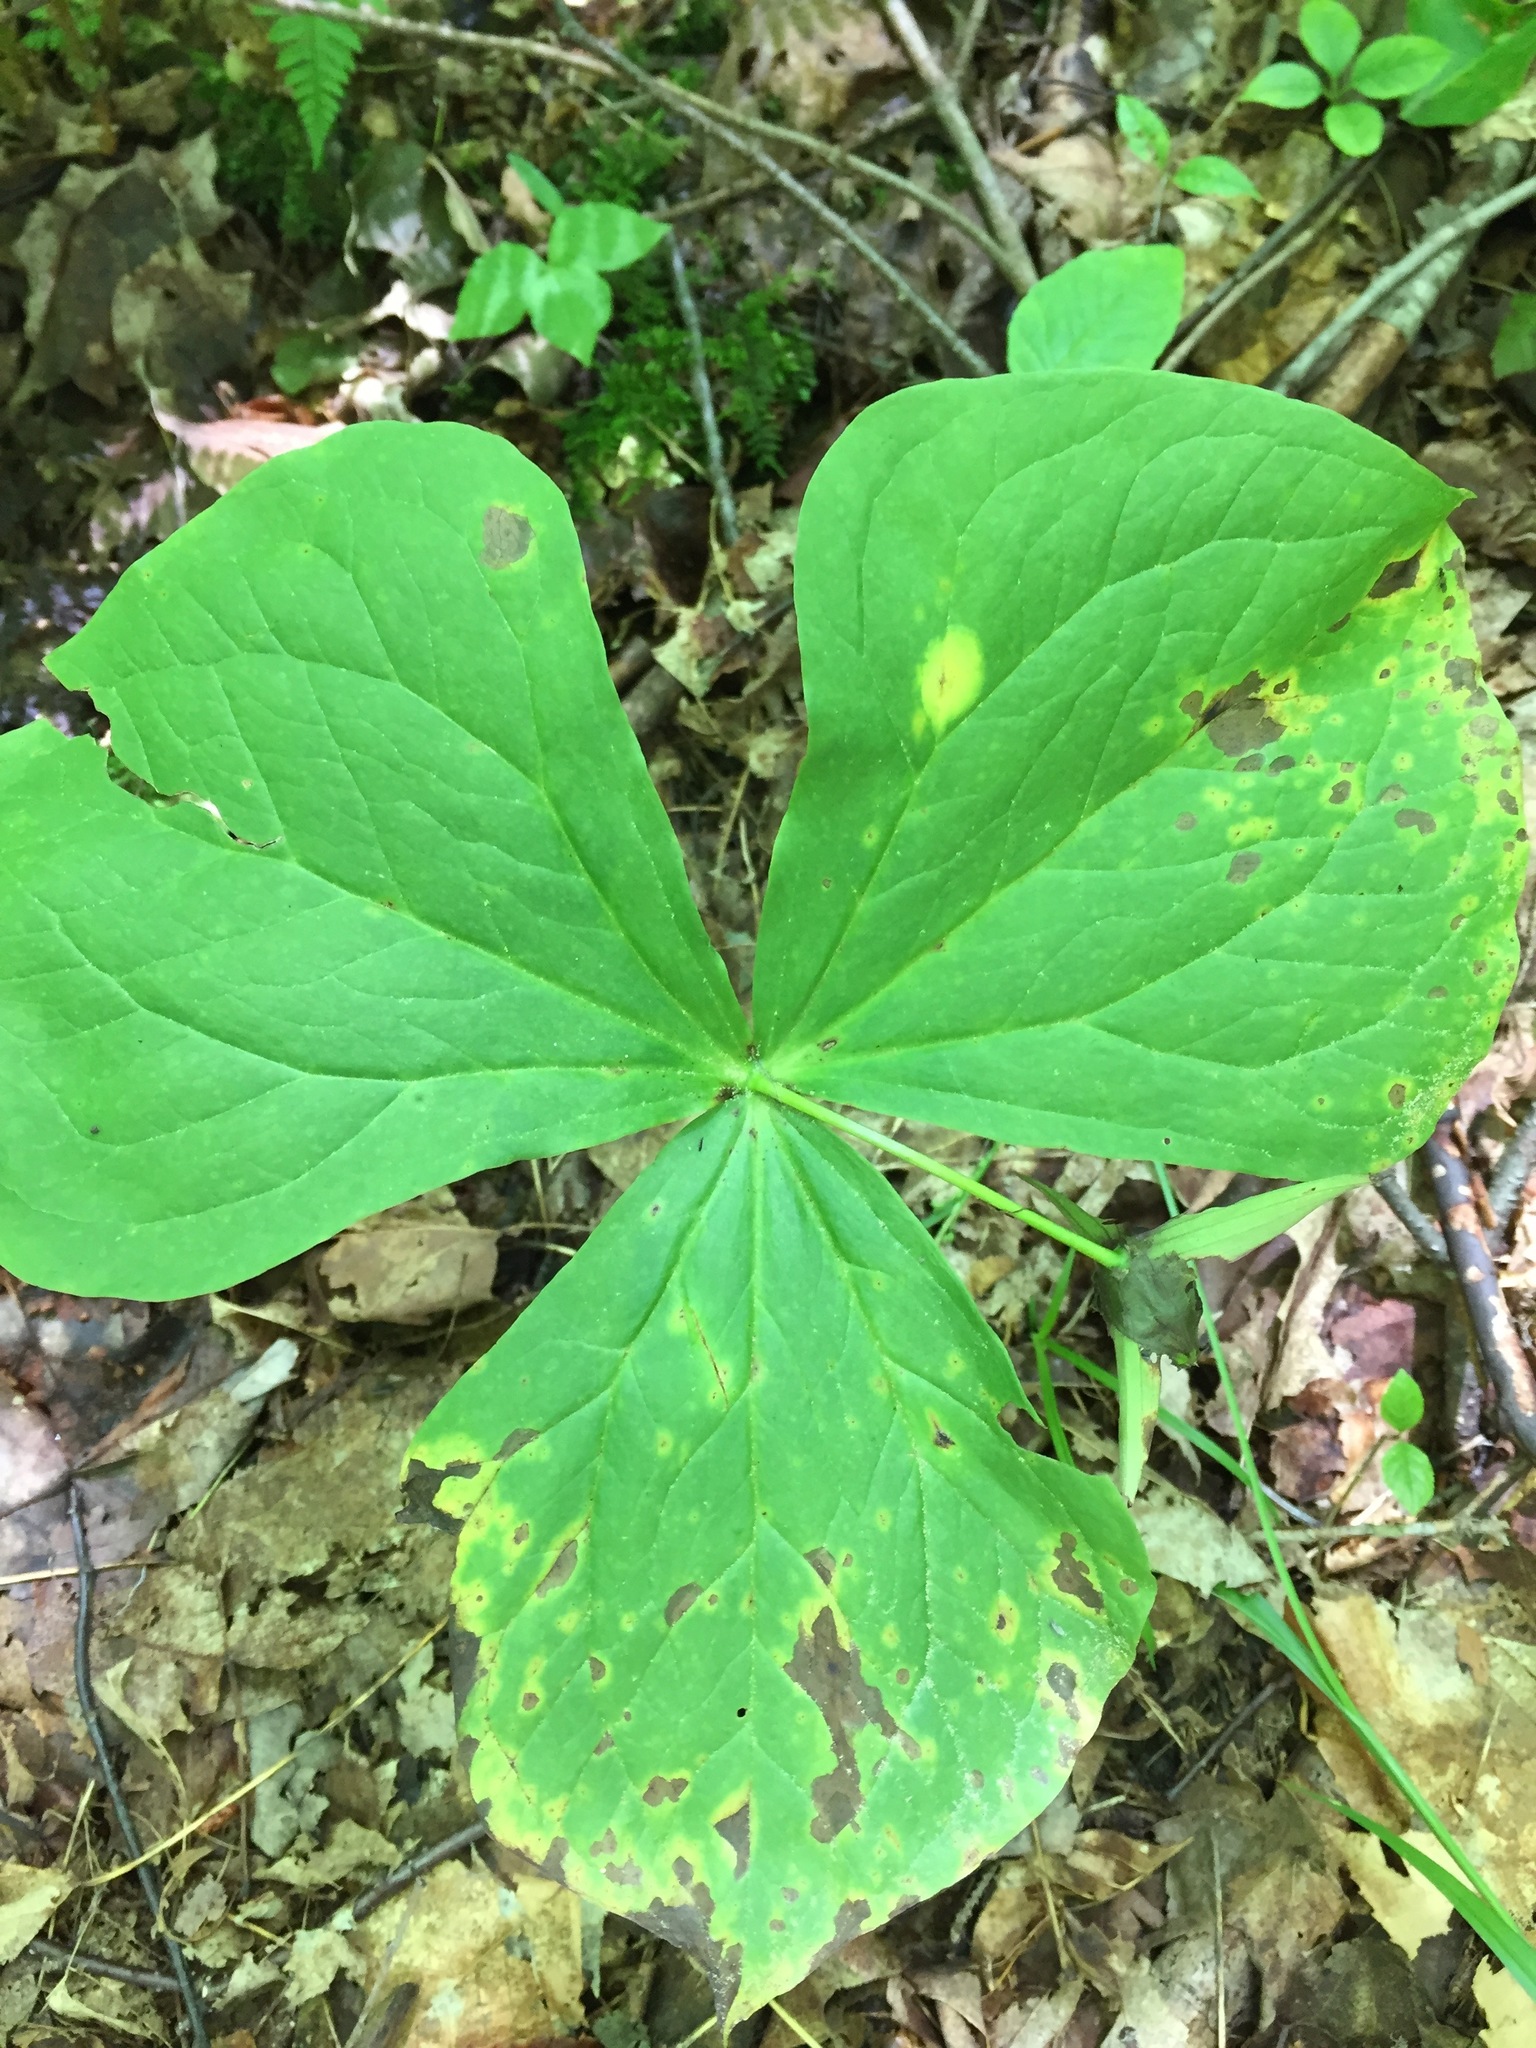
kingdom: Plantae
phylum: Tracheophyta
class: Liliopsida
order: Liliales
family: Melanthiaceae
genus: Trillium
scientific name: Trillium erectum
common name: Purple trillium
